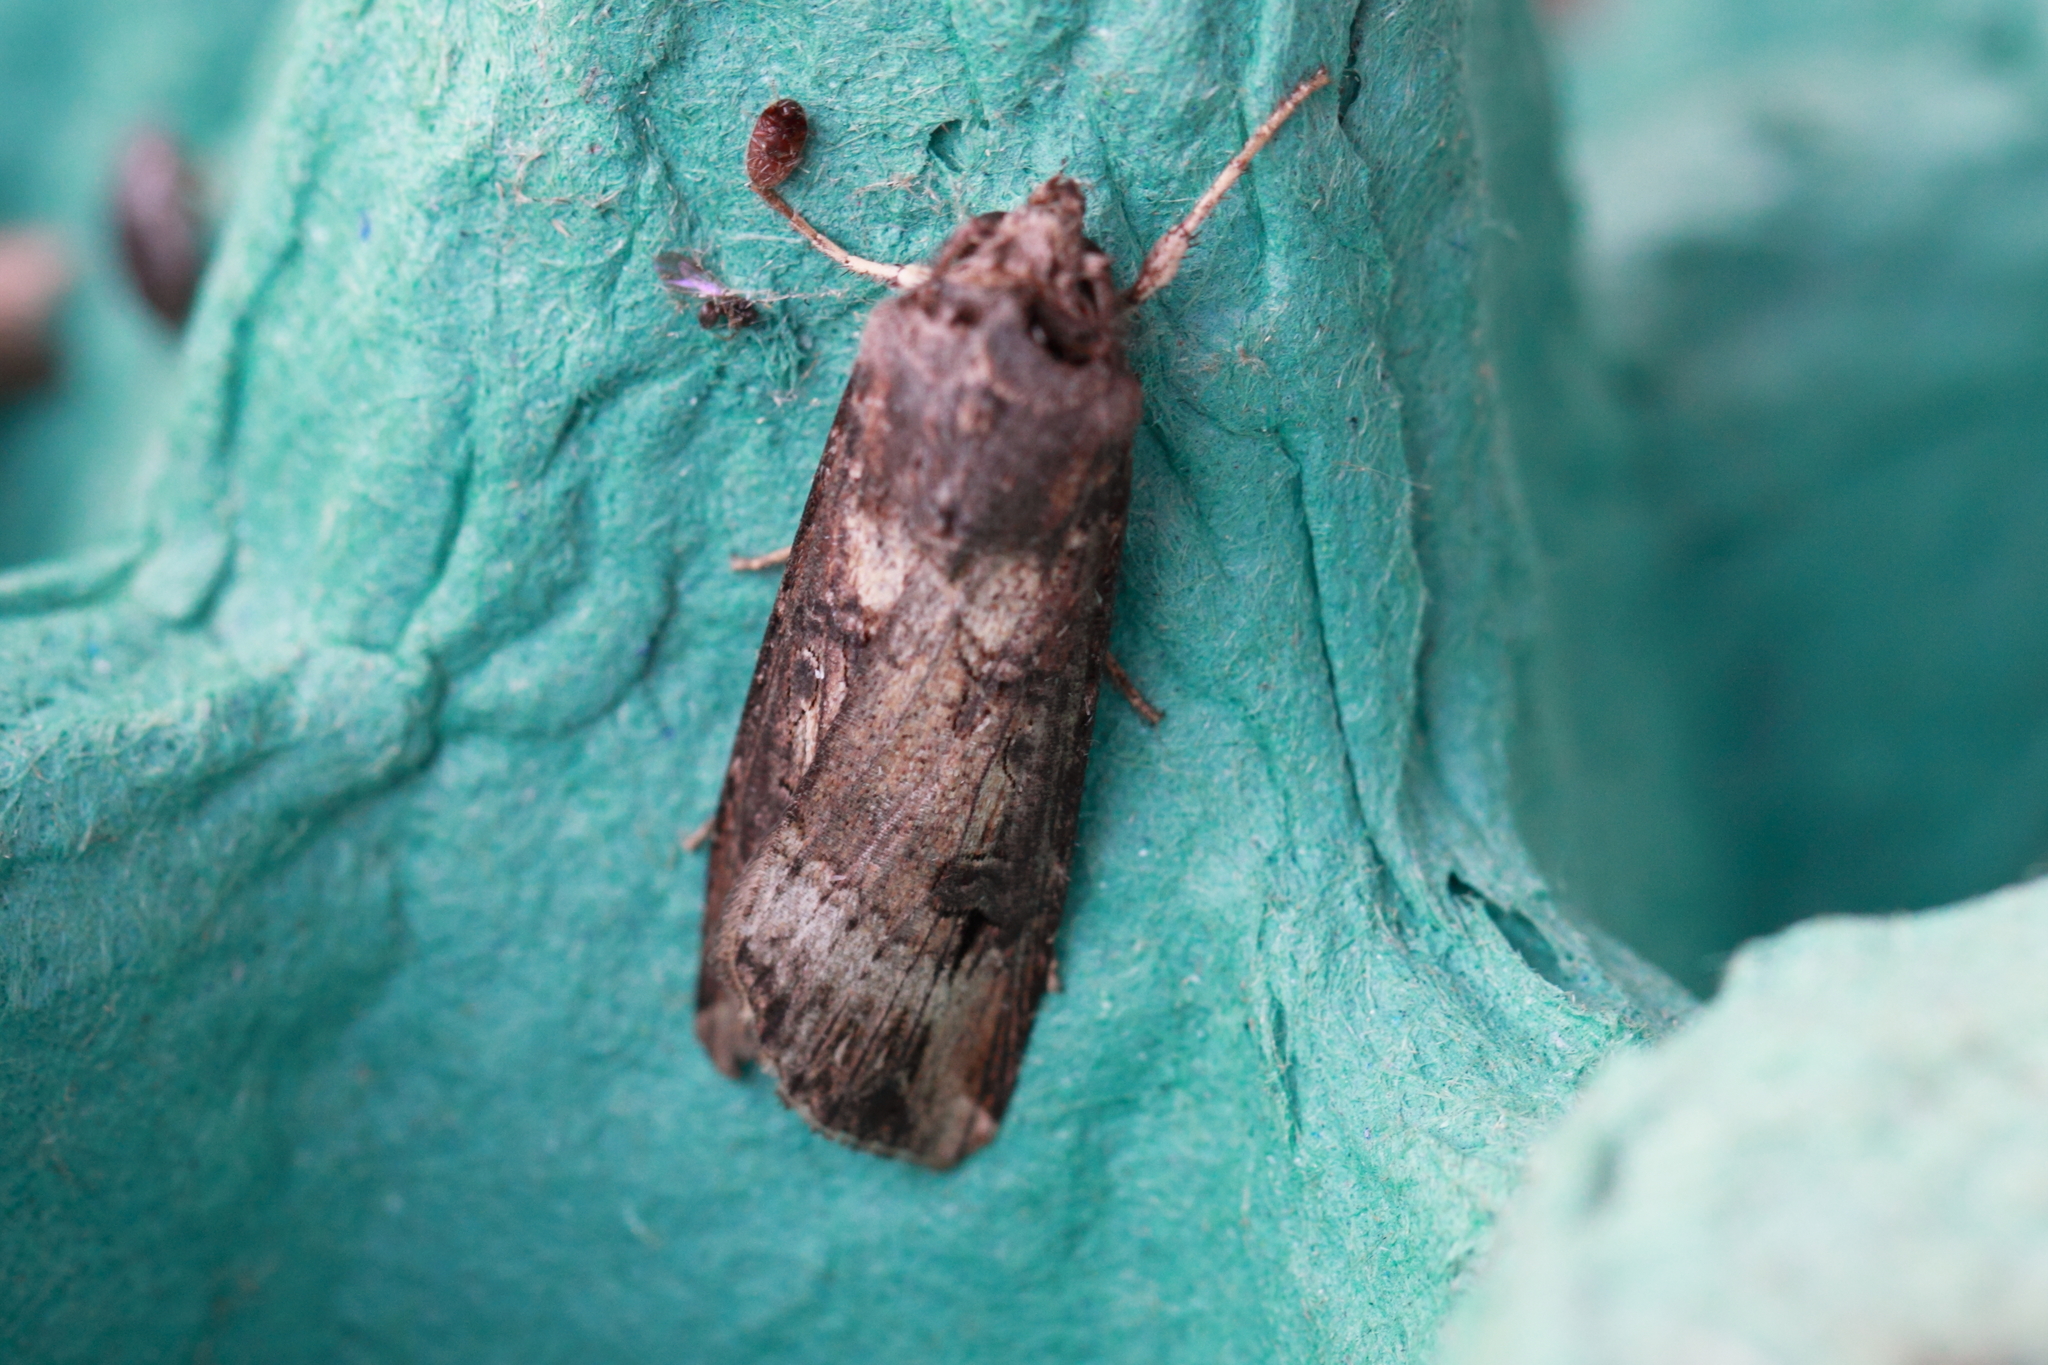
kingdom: Animalia
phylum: Arthropoda
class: Insecta
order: Lepidoptera
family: Noctuidae
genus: Agrotis
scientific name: Agrotis ipsilon
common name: Dark sword-grass
